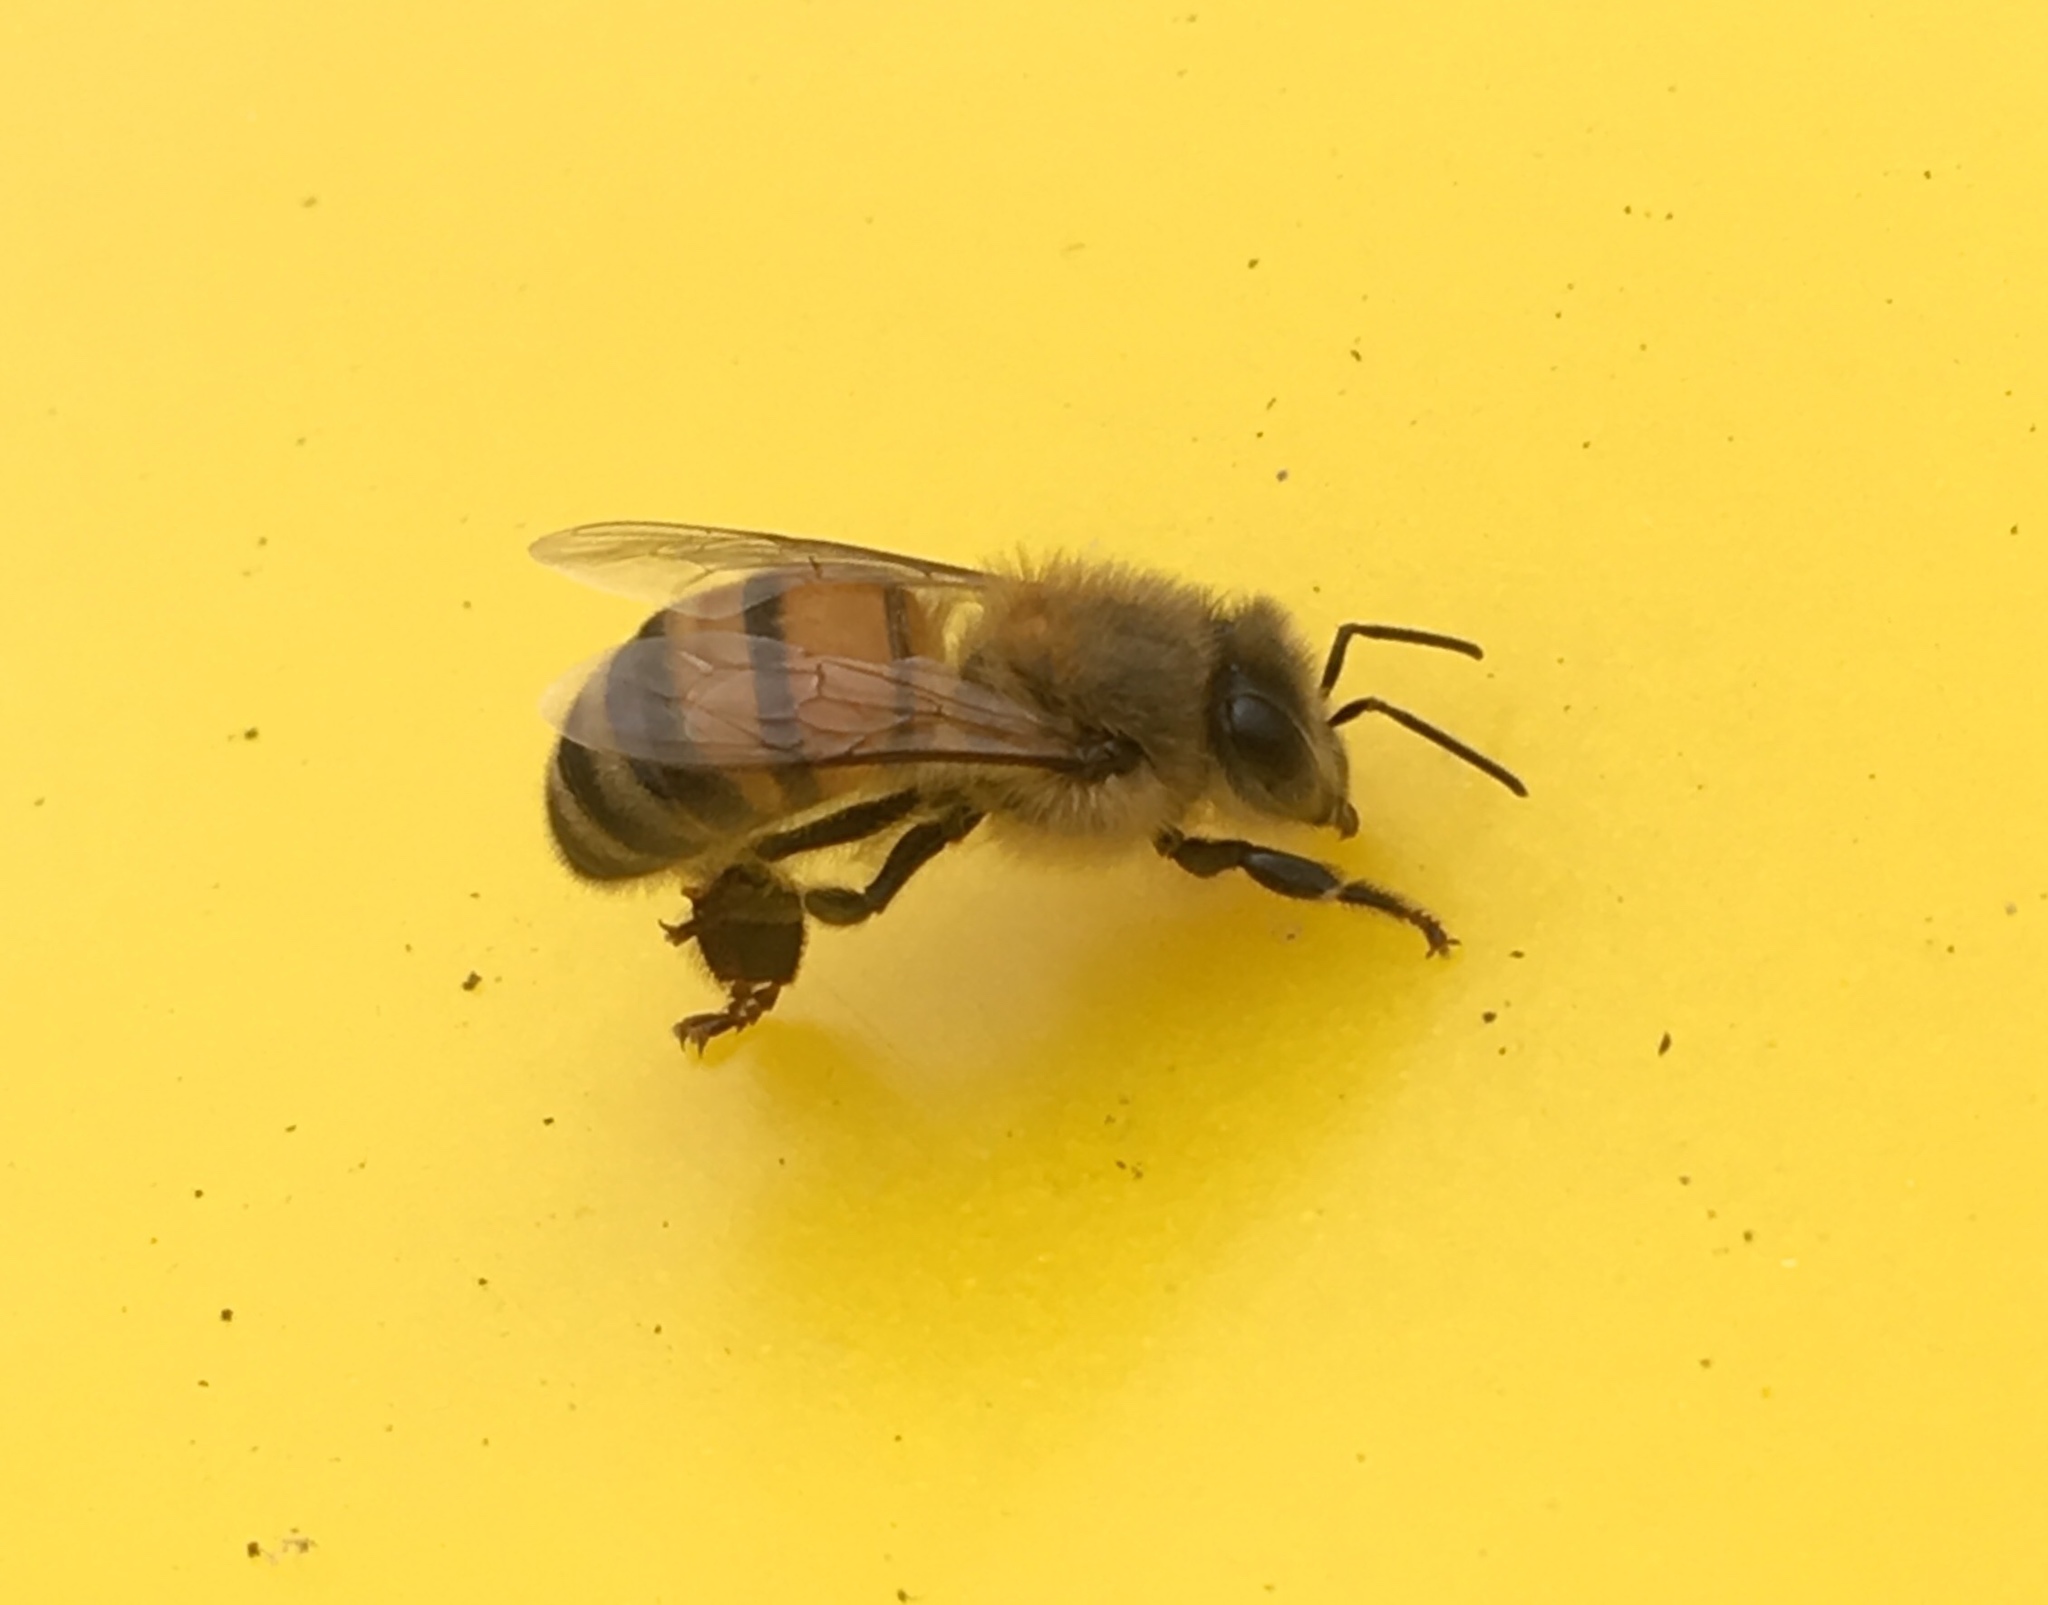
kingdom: Animalia
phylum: Arthropoda
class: Insecta
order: Hymenoptera
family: Apidae
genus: Apis
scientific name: Apis mellifera
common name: Honey bee
